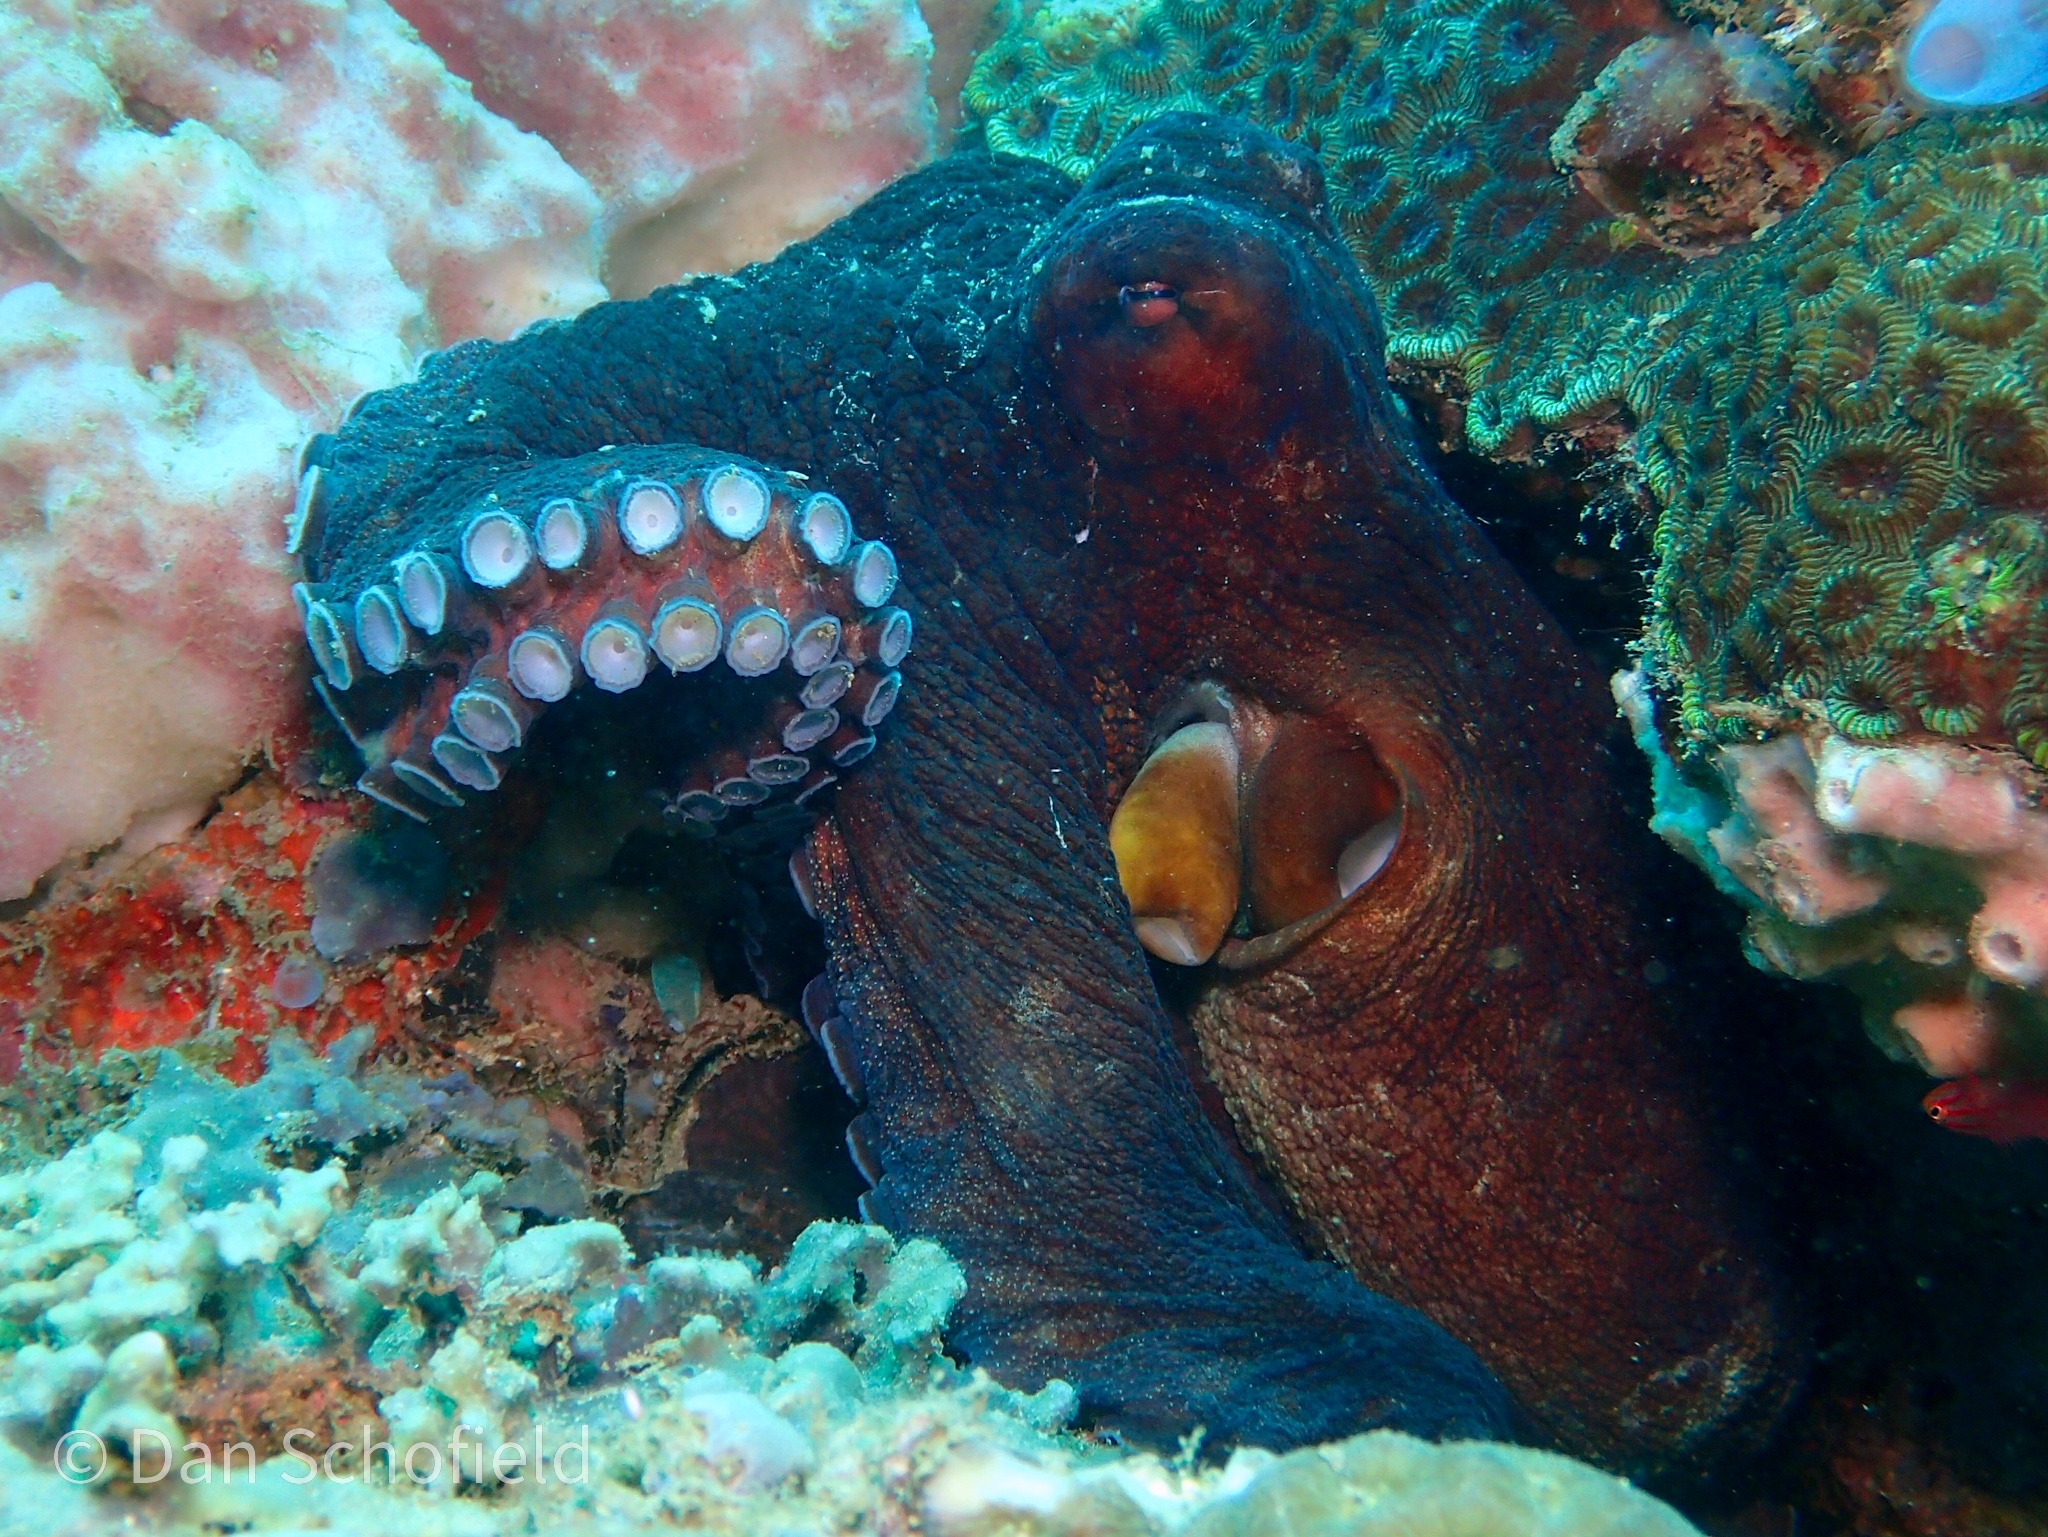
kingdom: Animalia
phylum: Mollusca
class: Cephalopoda
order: Octopoda
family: Octopodidae
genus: Octopus
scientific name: Octopus cyanea
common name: Cyane's octopus
